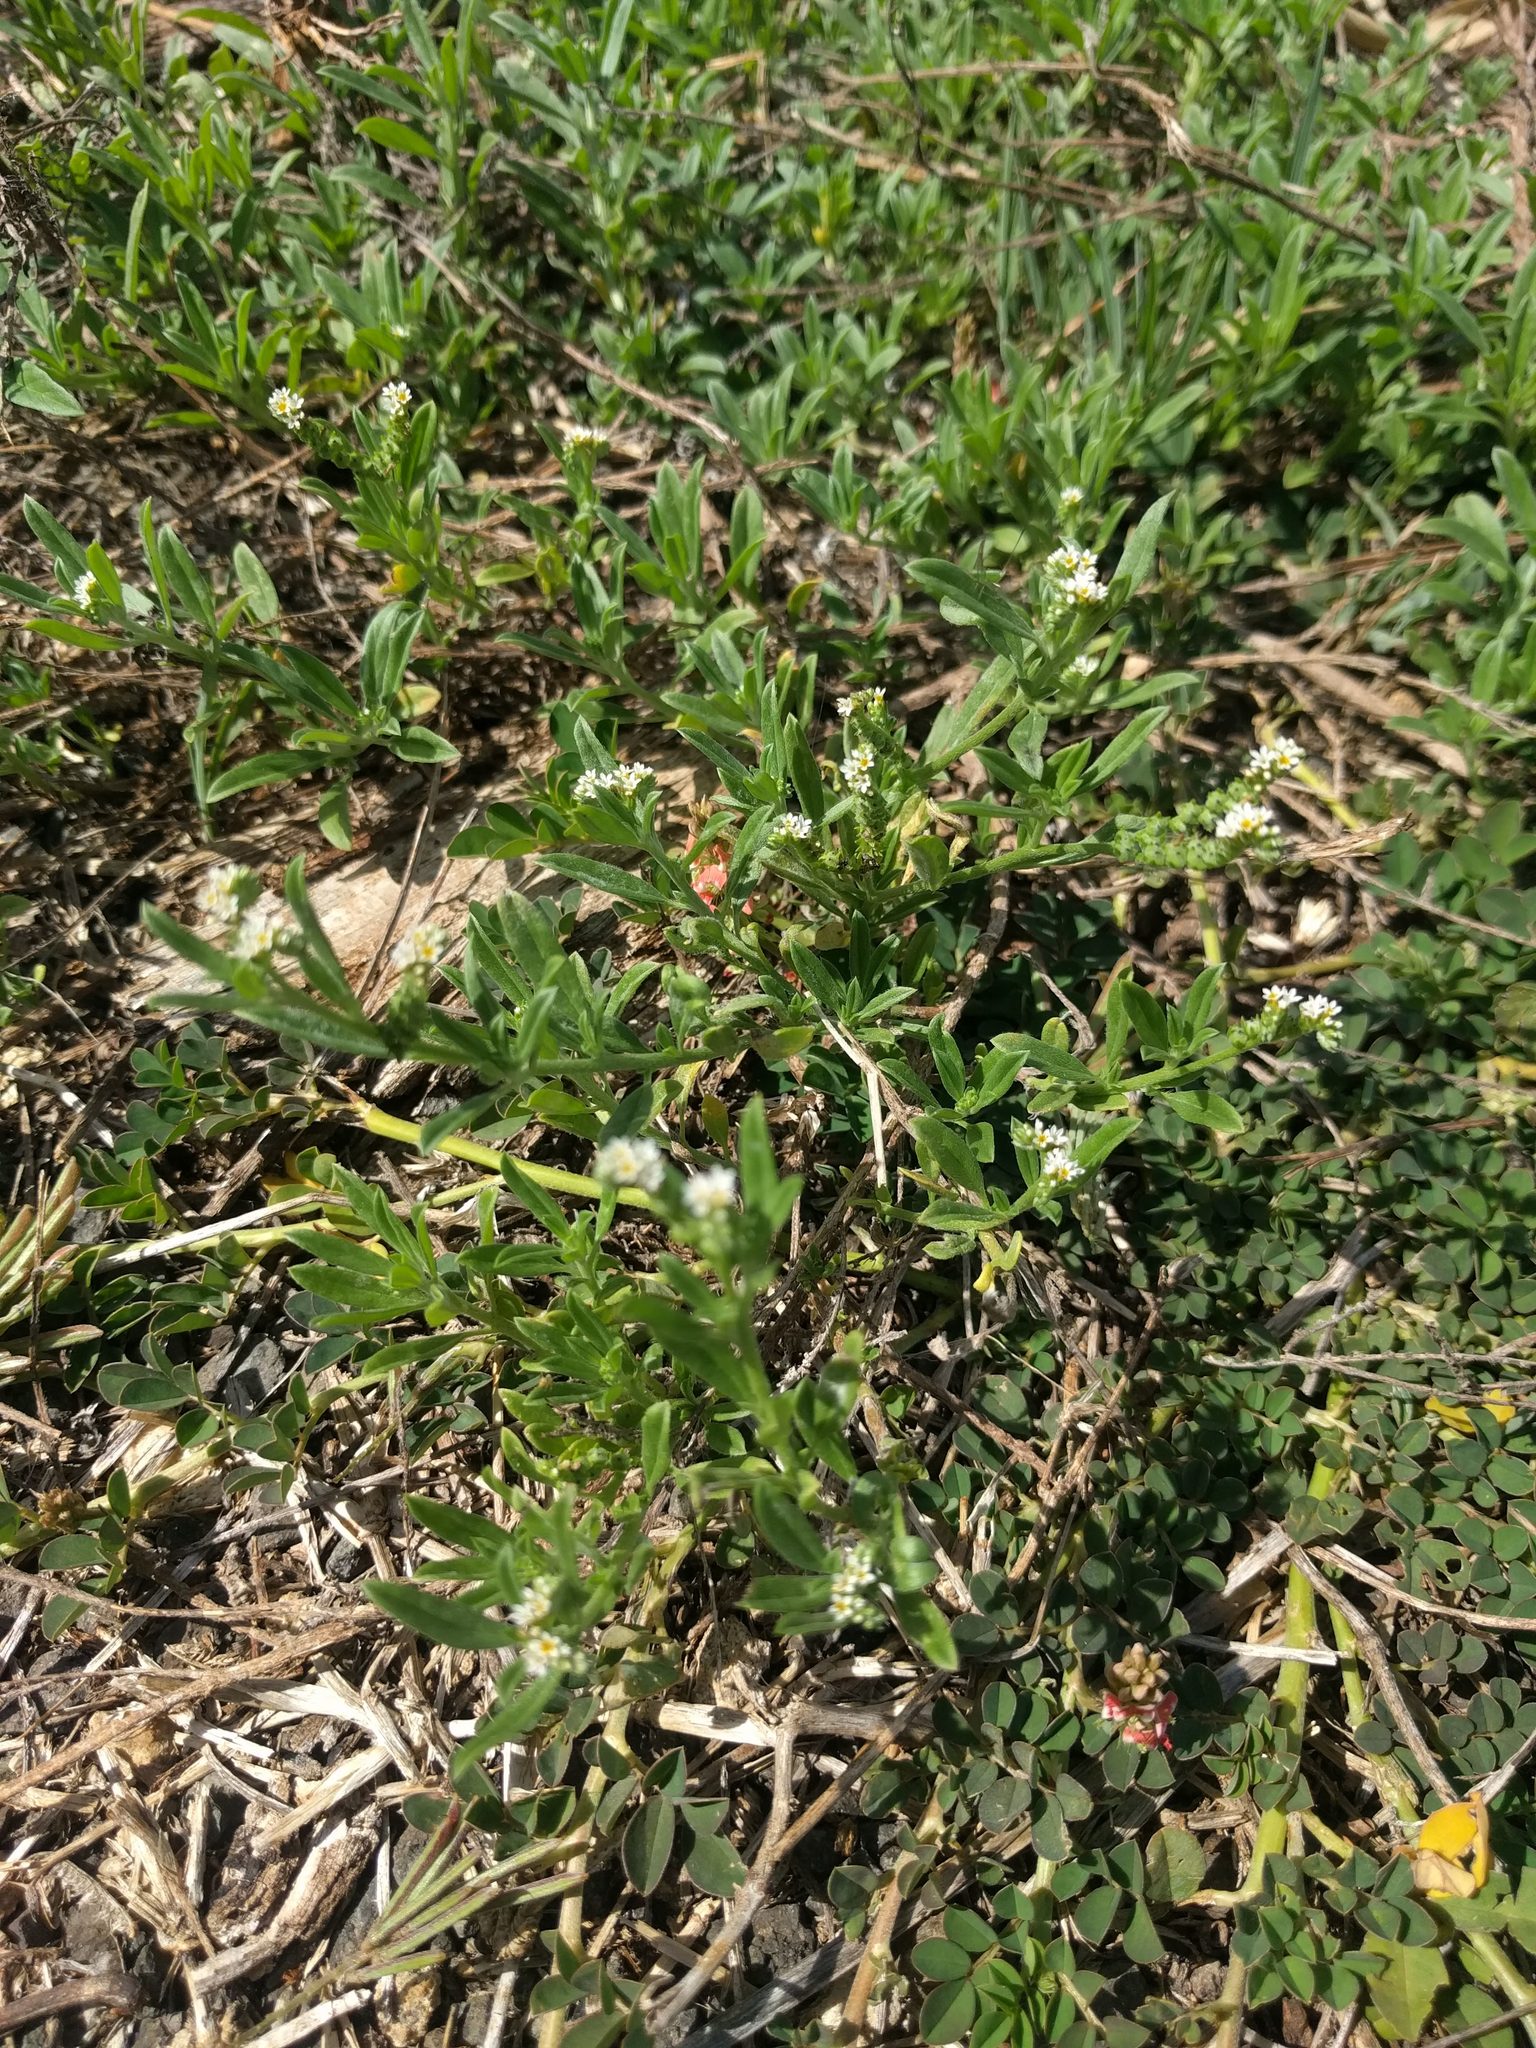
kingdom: Plantae
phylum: Tracheophyta
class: Magnoliopsida
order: Boraginales
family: Heliotropiaceae
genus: Euploca
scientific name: Euploca procumbens
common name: Fourspike heliotrope
